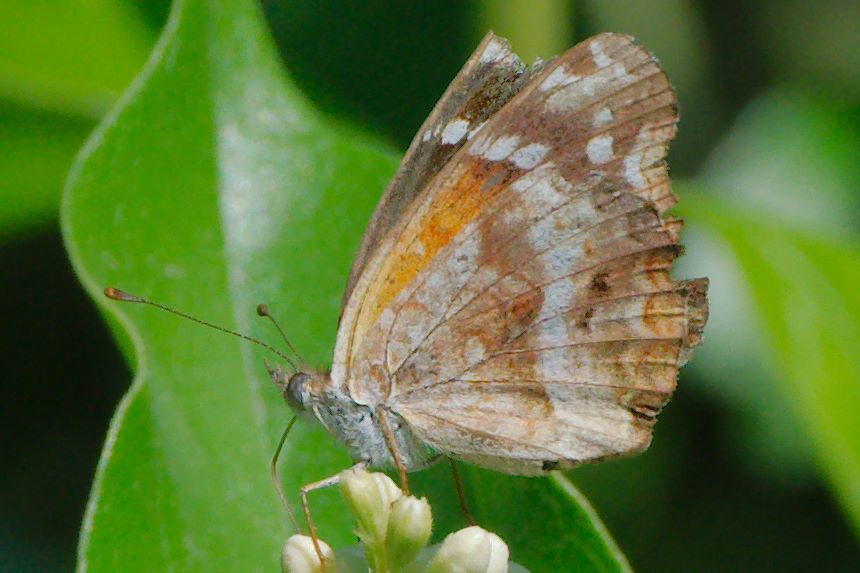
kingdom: Animalia
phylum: Arthropoda
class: Insecta
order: Lepidoptera
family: Nymphalidae
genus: Anthanassa
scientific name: Anthanassa texana
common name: Texan crescent
